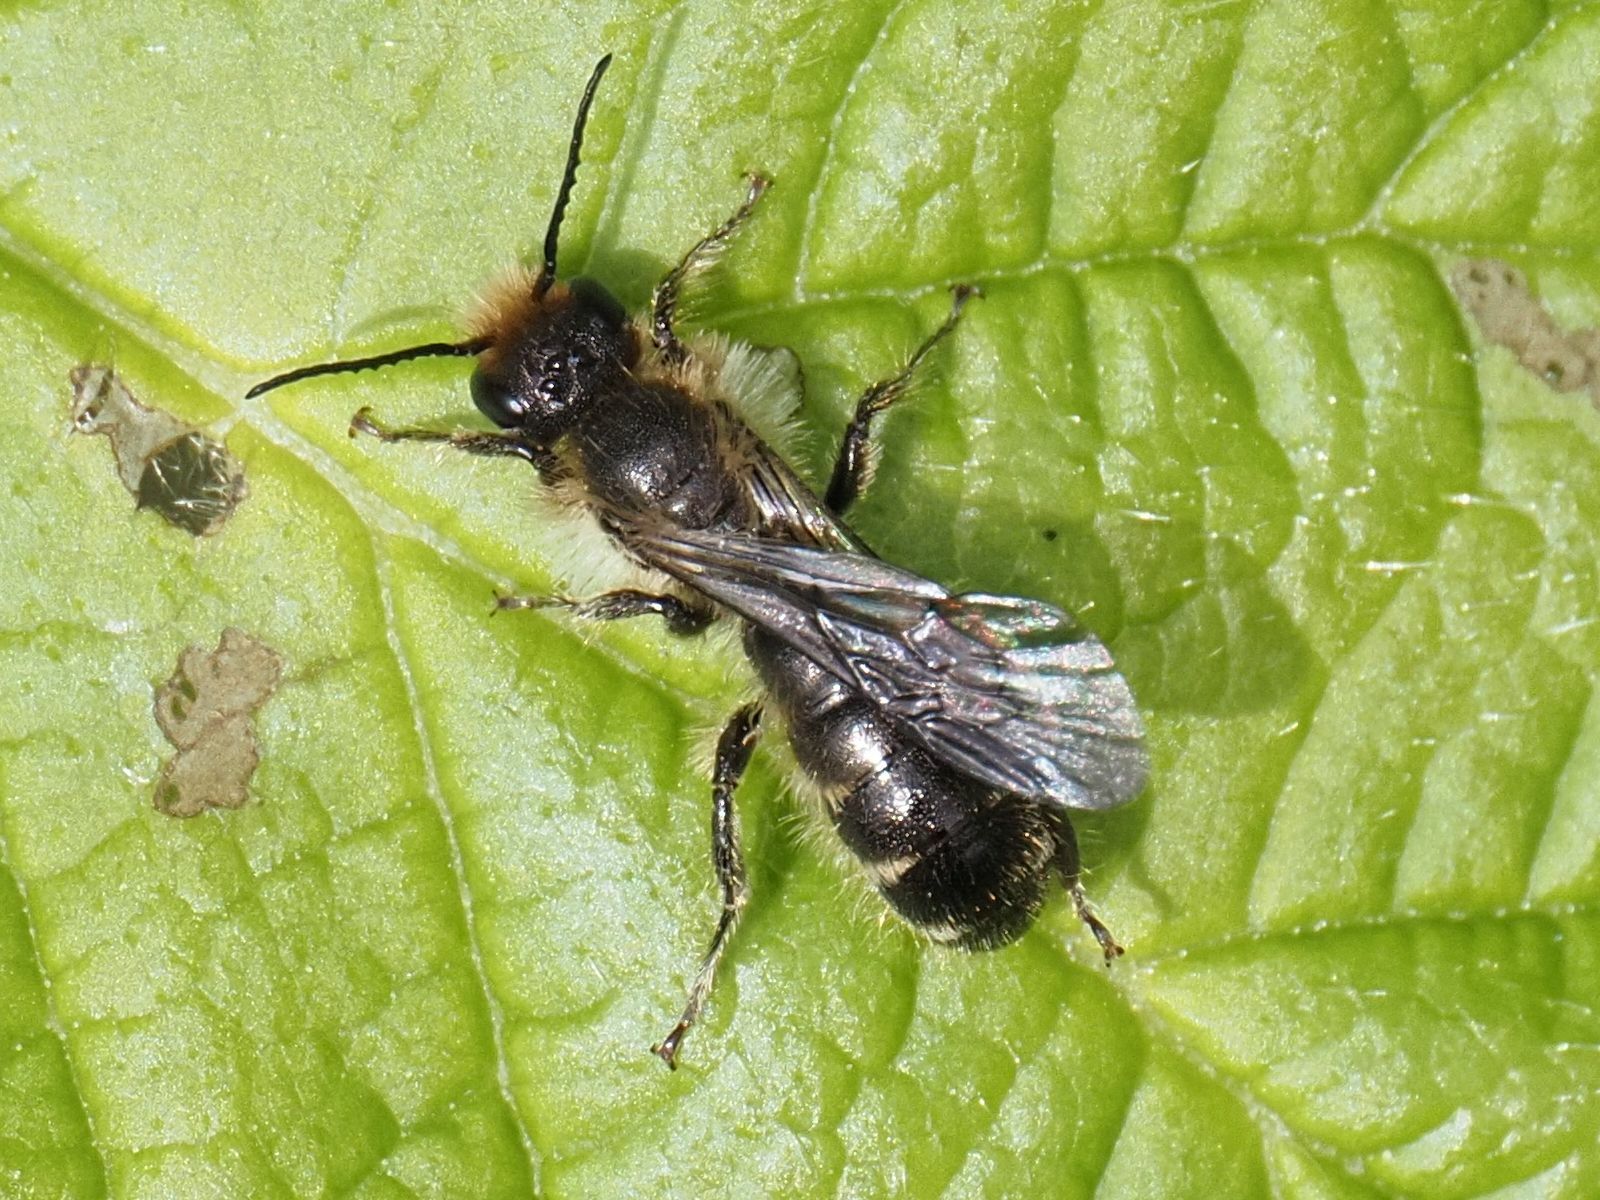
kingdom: Animalia
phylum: Arthropoda
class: Insecta
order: Hymenoptera
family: Megachilidae
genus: Chelostoma
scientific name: Chelostoma florisomne
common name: Sleepy carpenter bee
